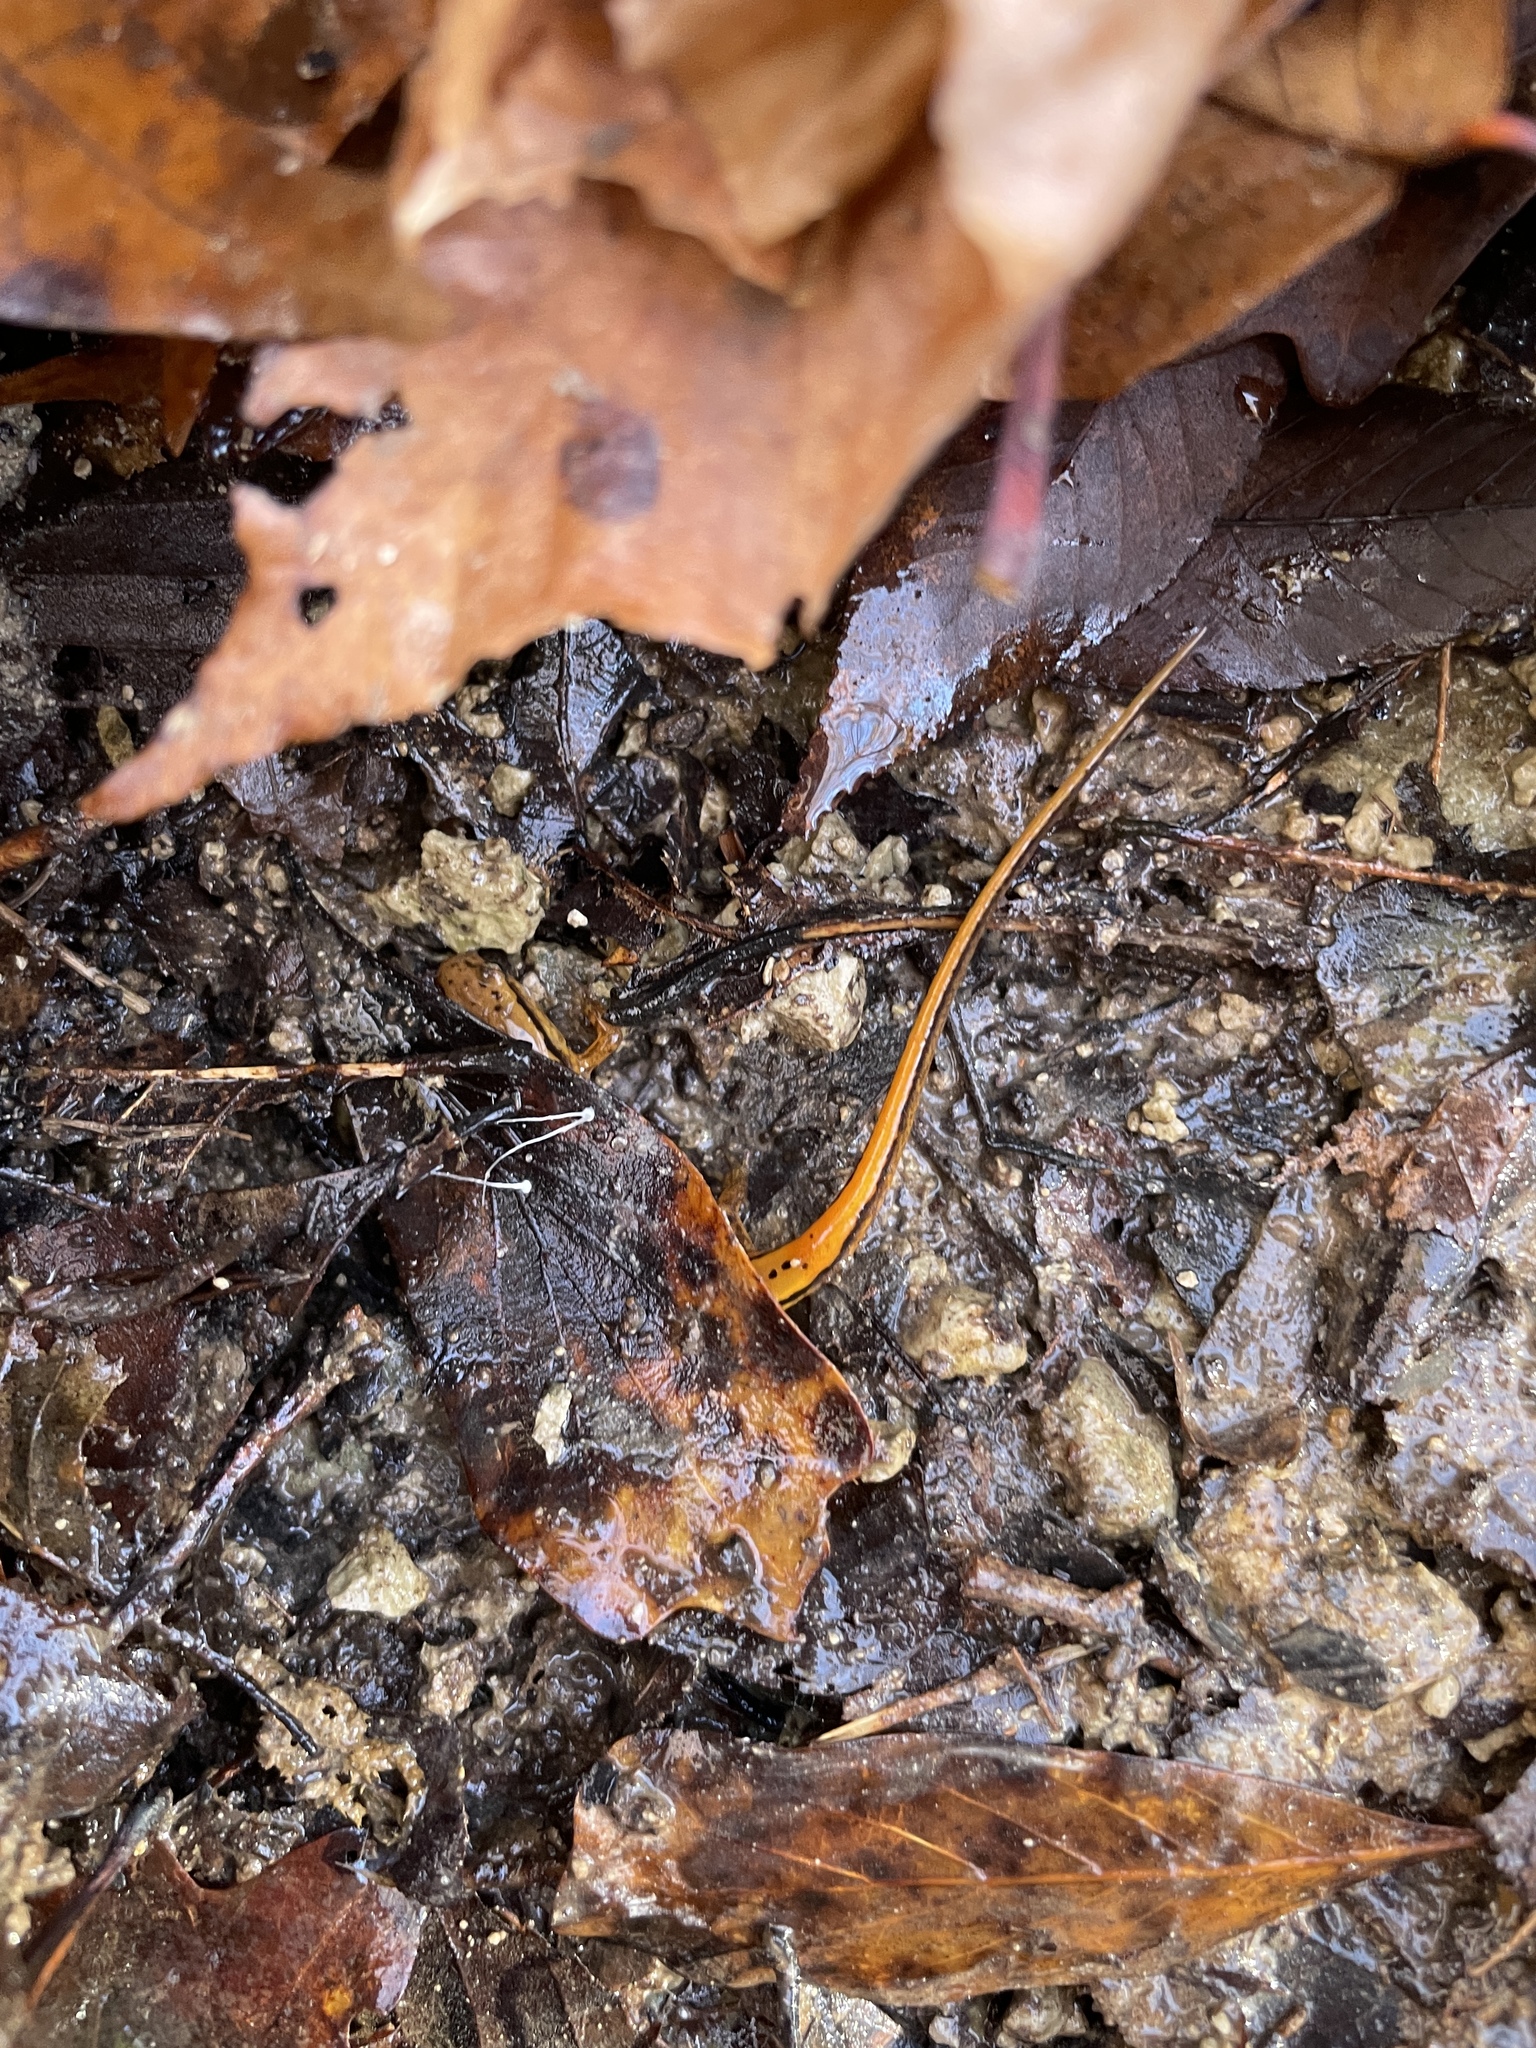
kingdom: Animalia
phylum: Chordata
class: Amphibia
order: Caudata
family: Plethodontidae
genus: Eurycea
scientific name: Eurycea cirrigera
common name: Southern two-lined salamander
